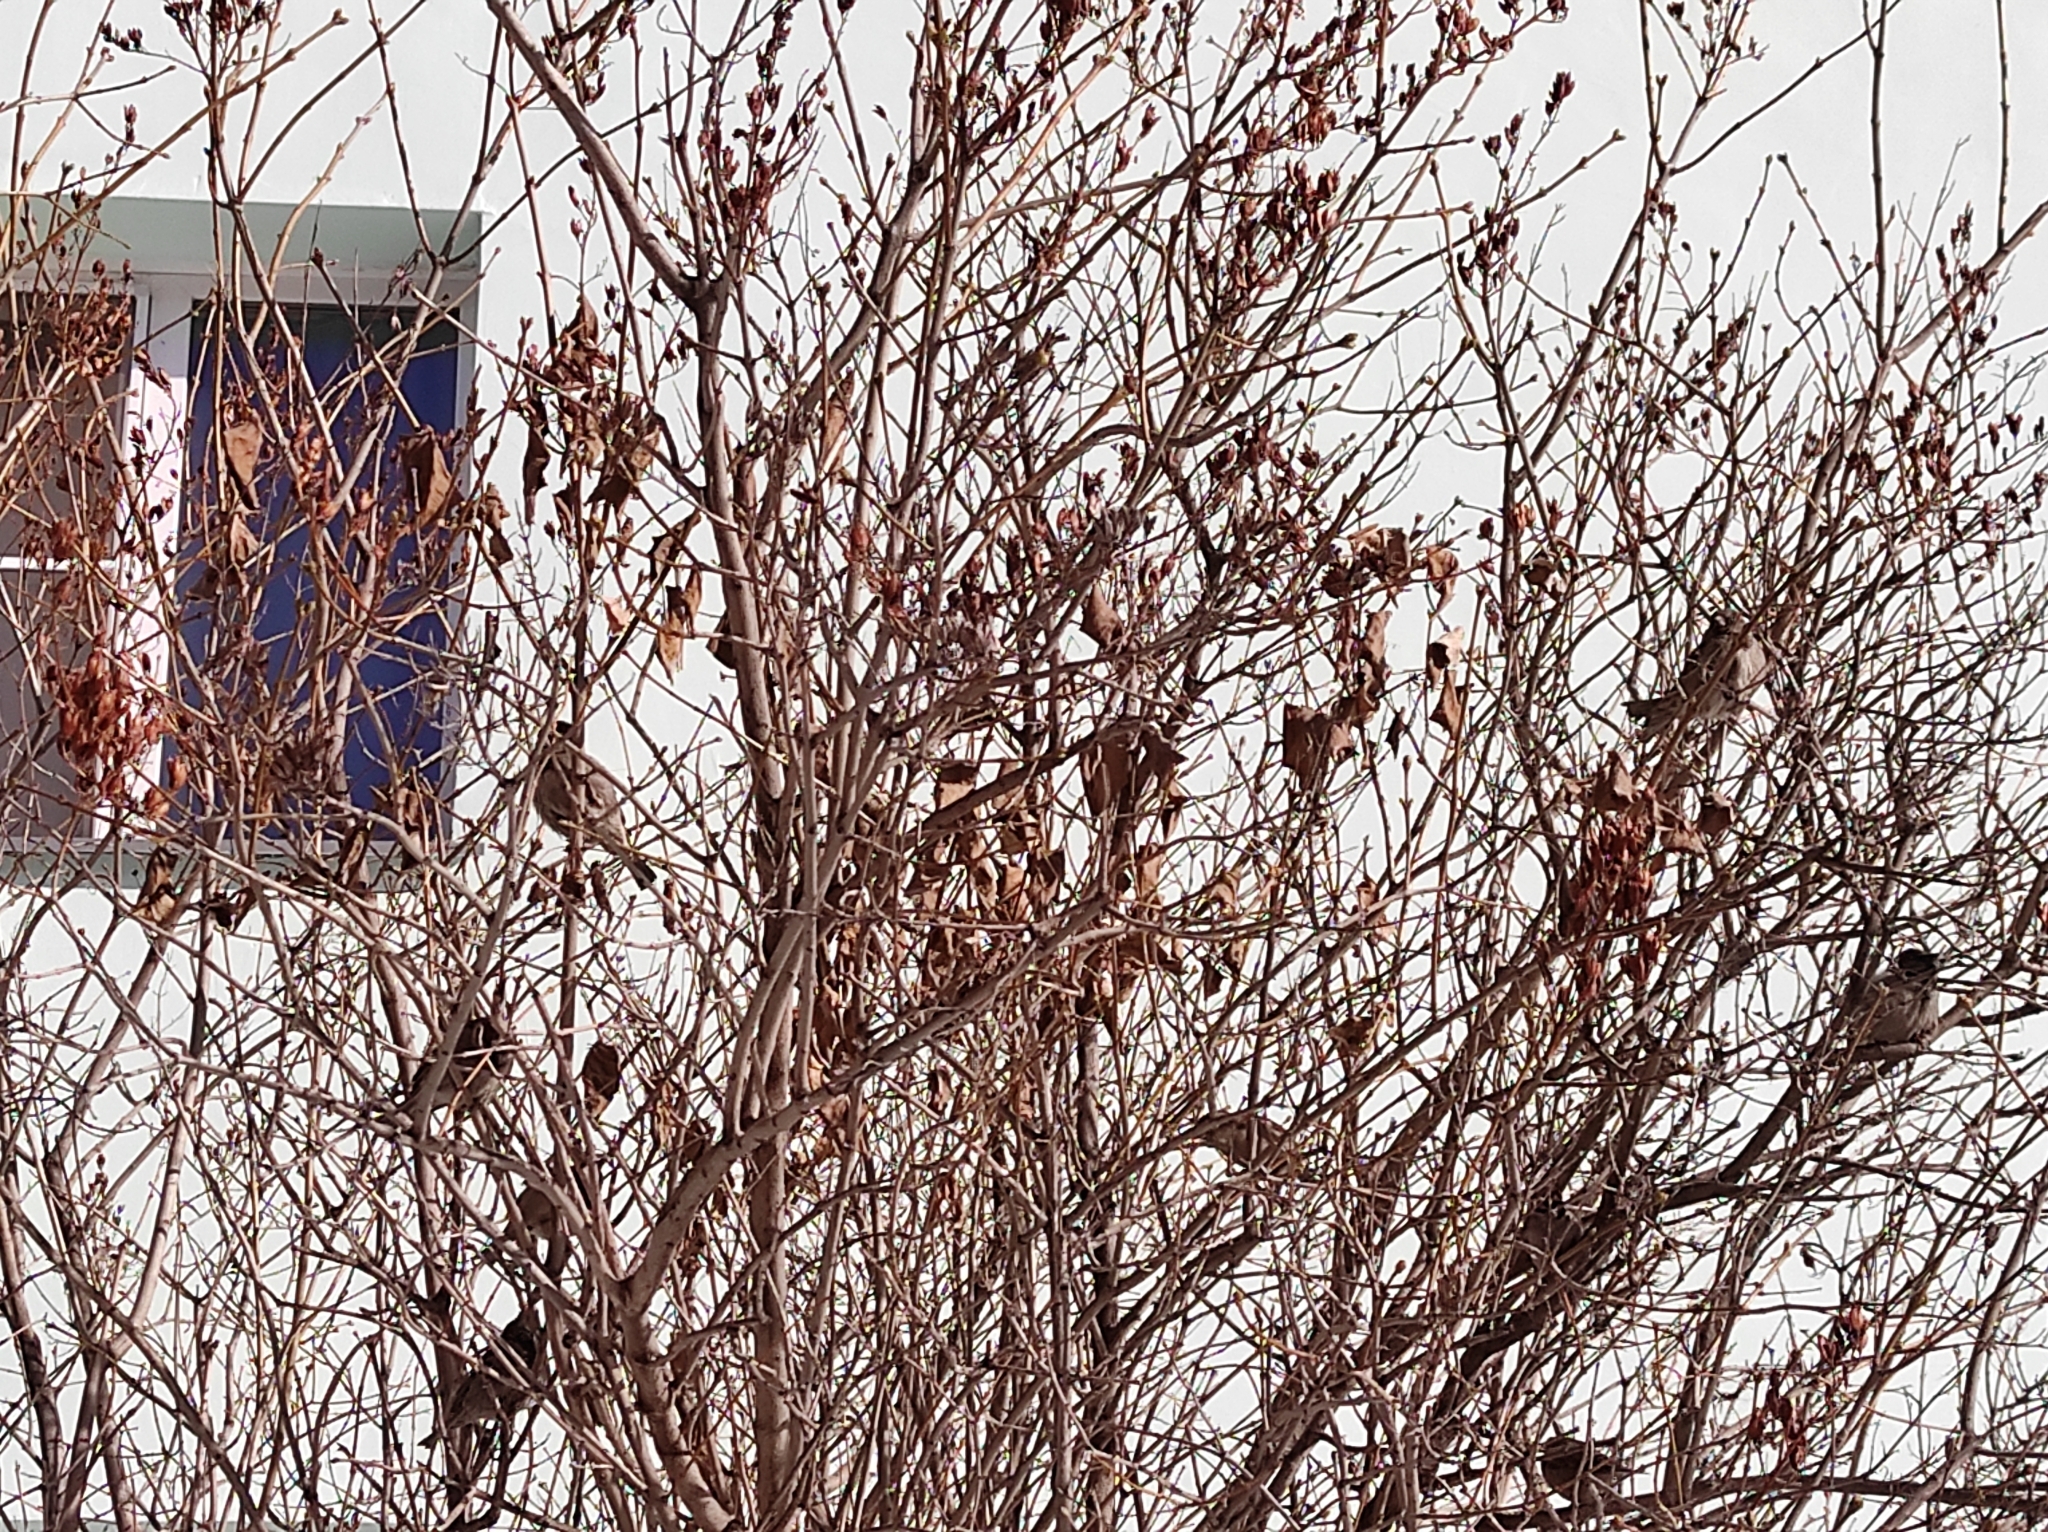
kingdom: Animalia
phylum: Chordata
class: Aves
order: Passeriformes
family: Passeridae
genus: Passer
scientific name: Passer domesticus
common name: House sparrow
